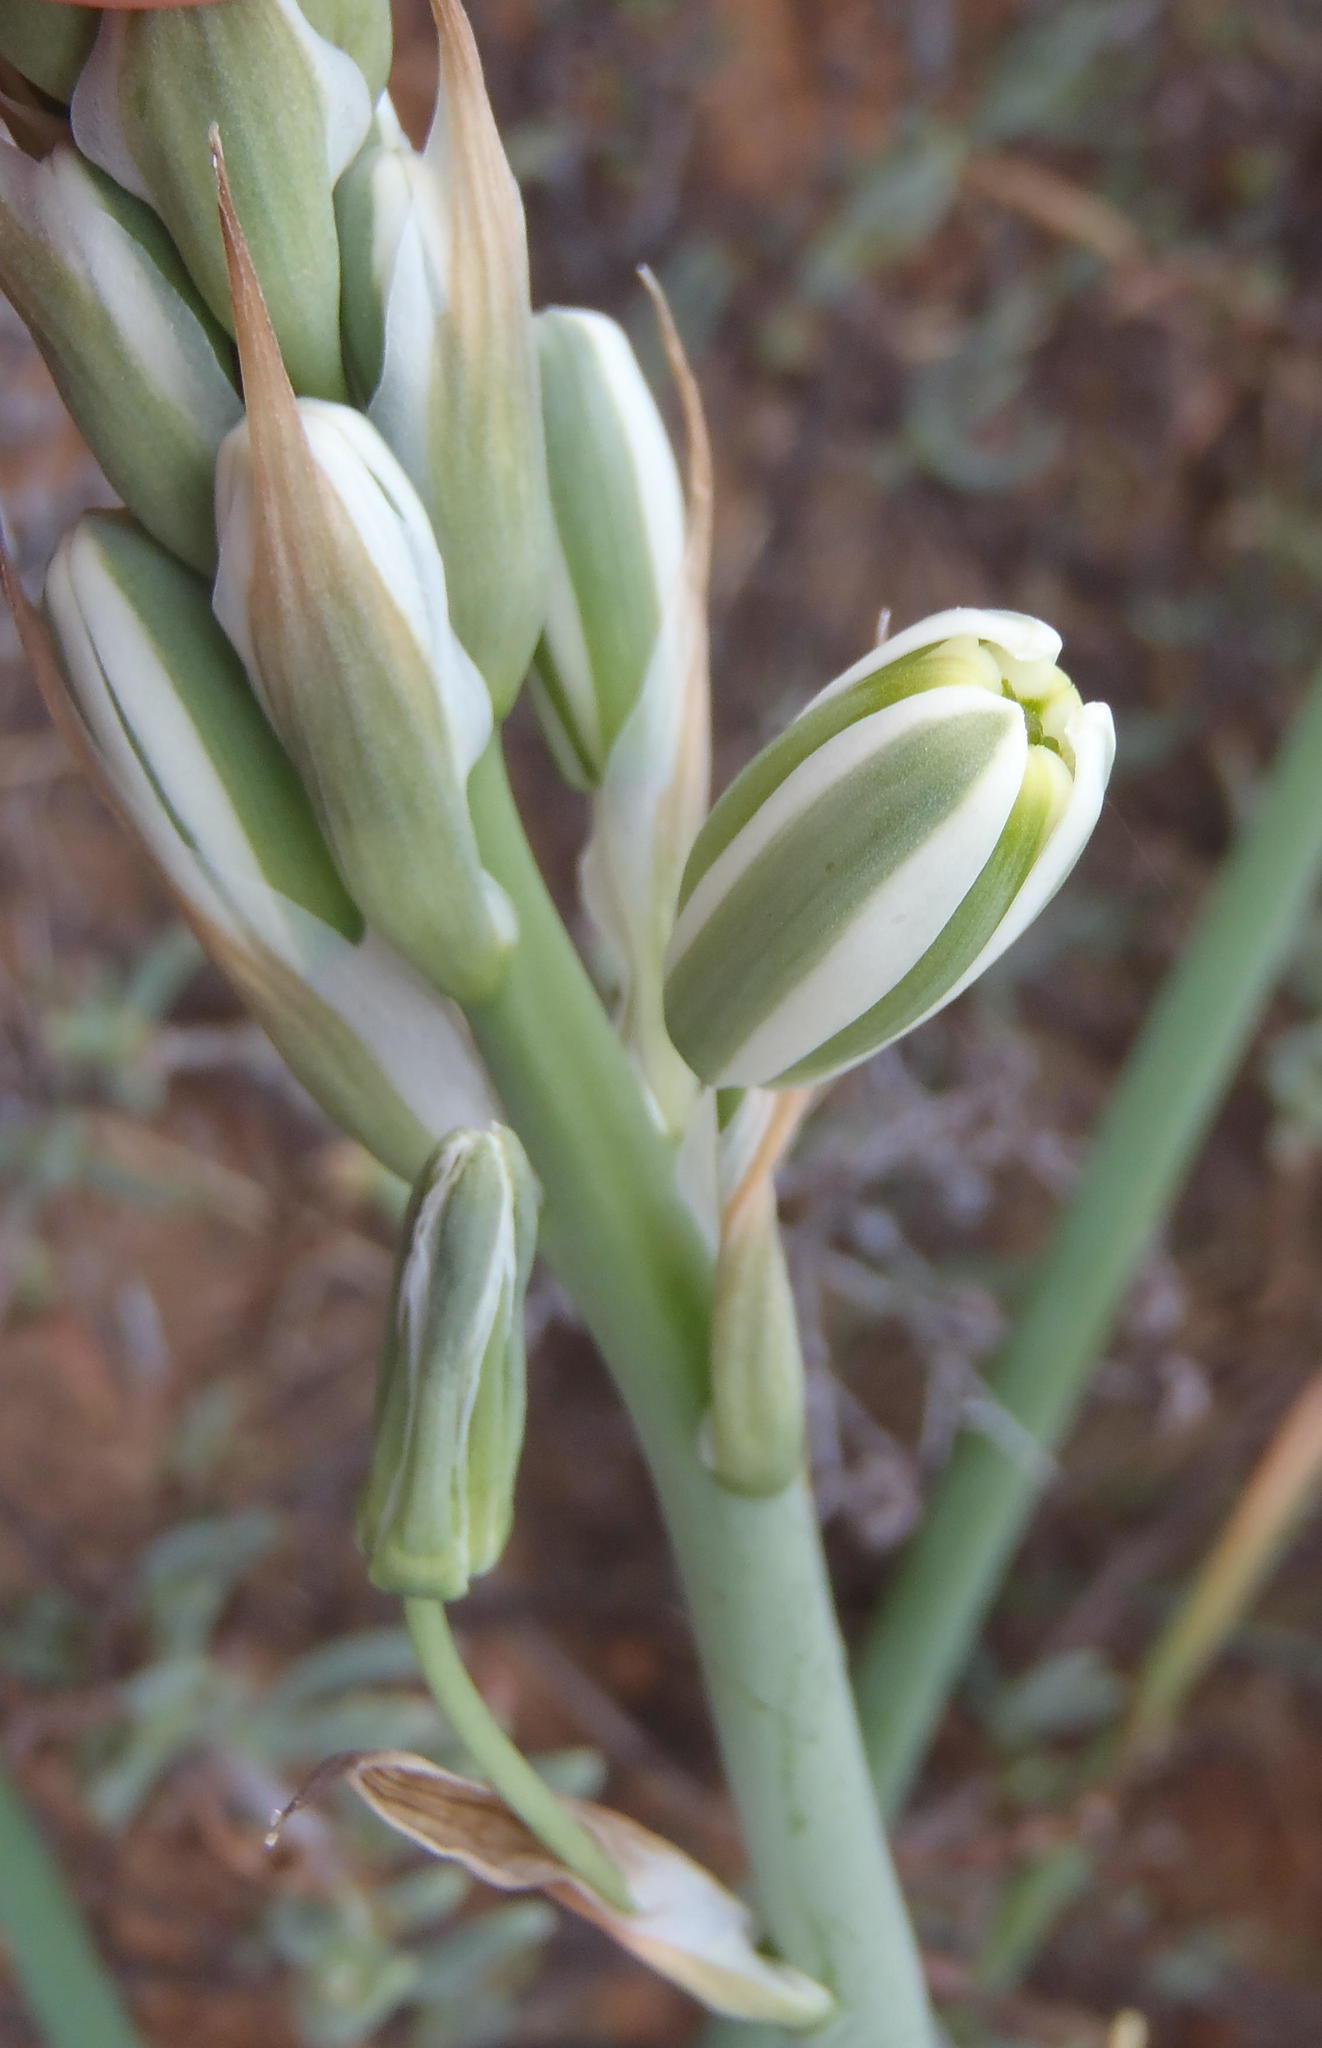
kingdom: Plantae
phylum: Tracheophyta
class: Liliopsida
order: Asparagales
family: Asparagaceae
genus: Albuca
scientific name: Albuca canadensis
